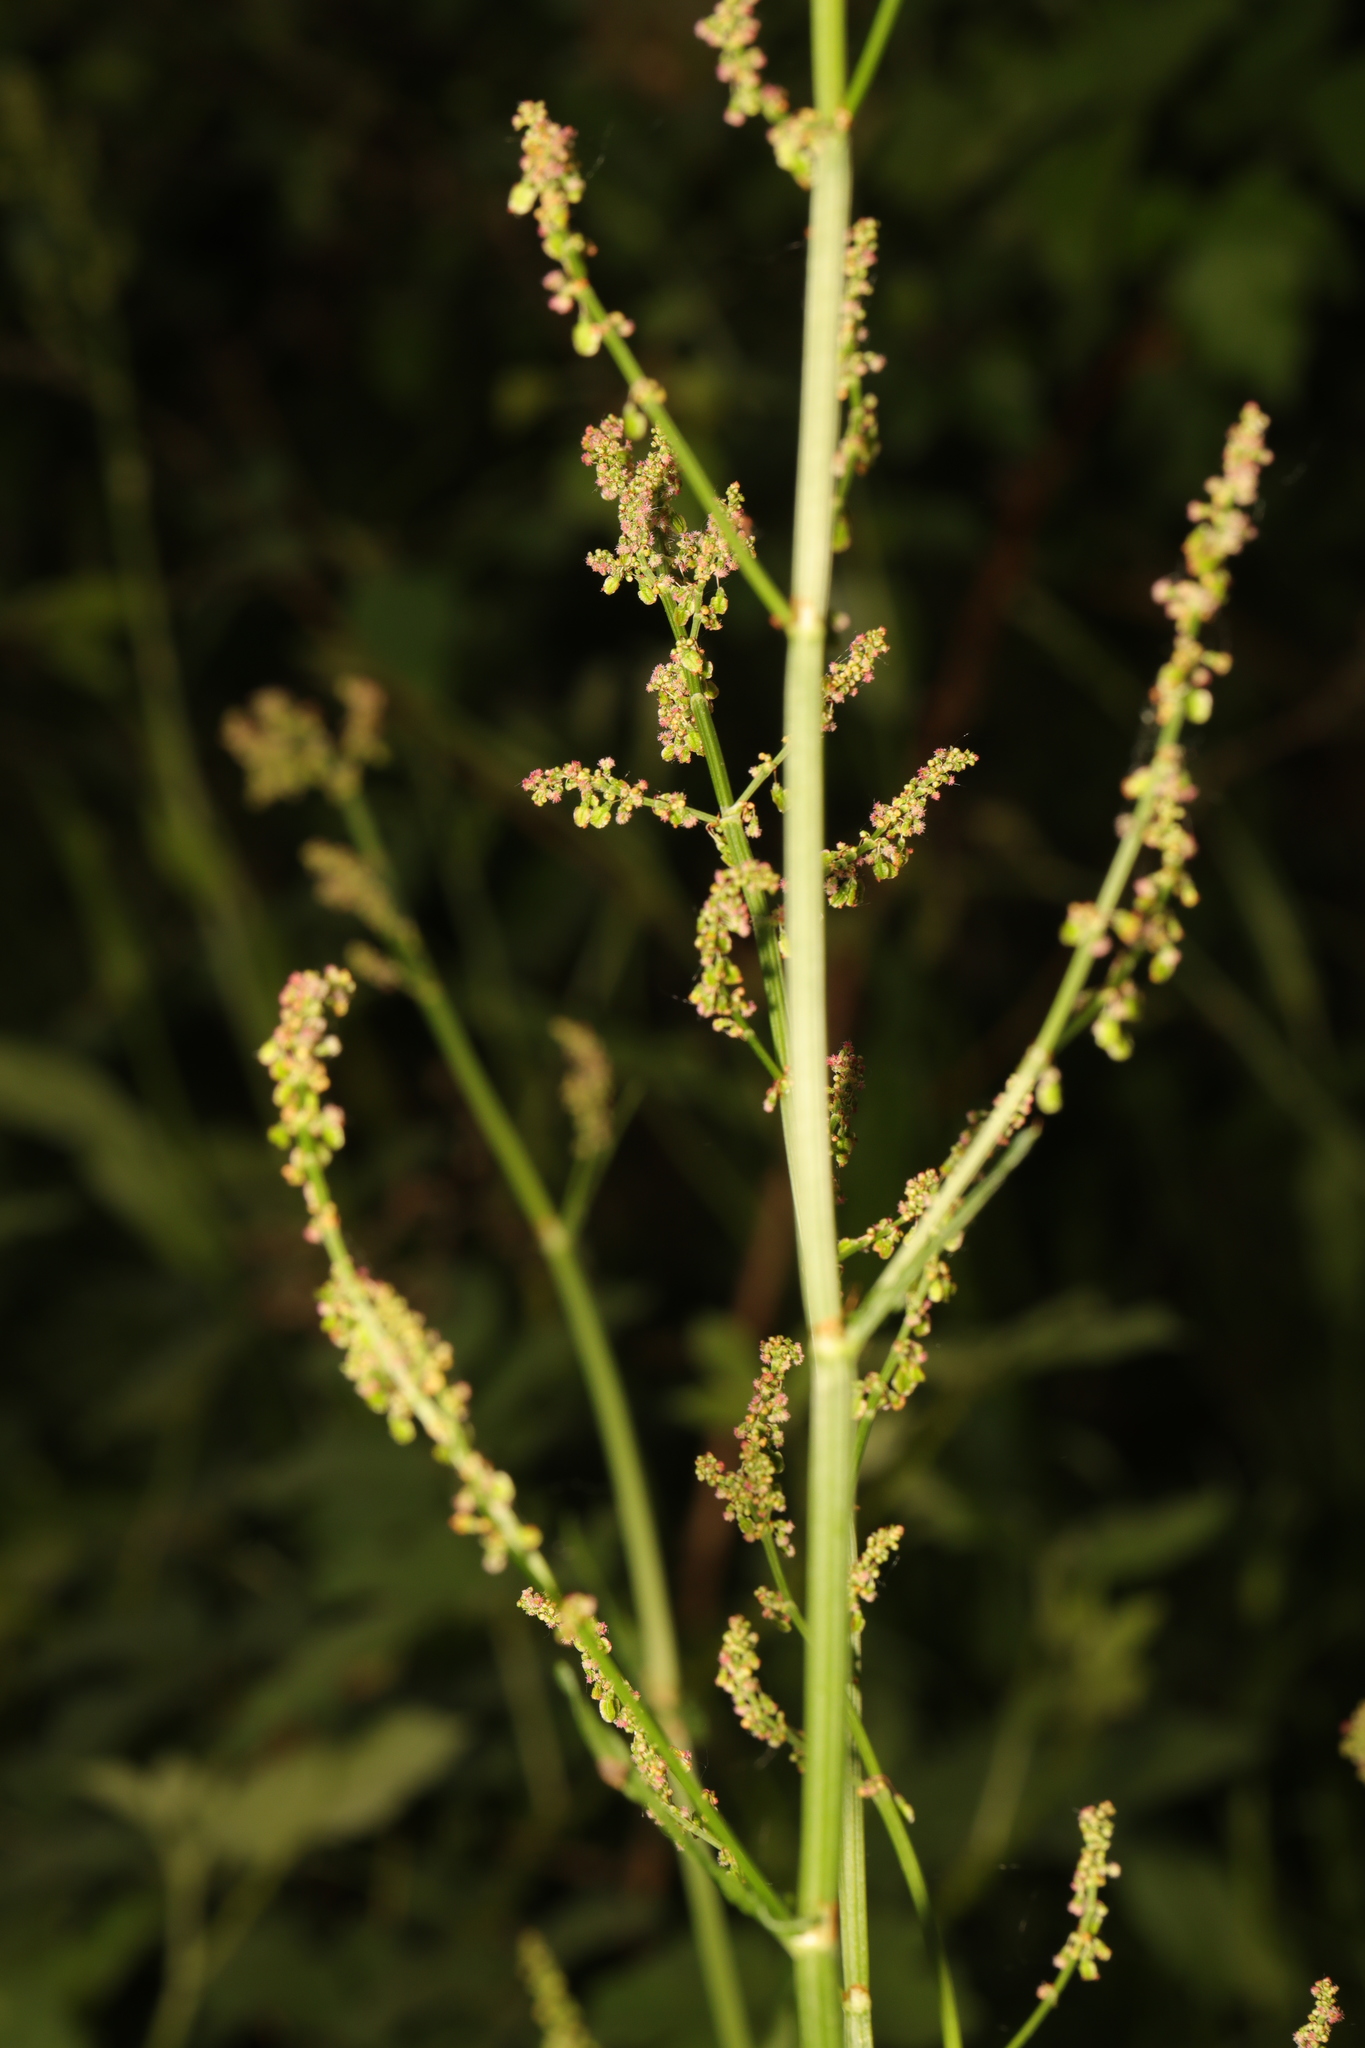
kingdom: Plantae
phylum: Tracheophyta
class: Magnoliopsida
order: Caryophyllales
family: Polygonaceae
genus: Rumex
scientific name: Rumex acetosa
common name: Garden sorrel
